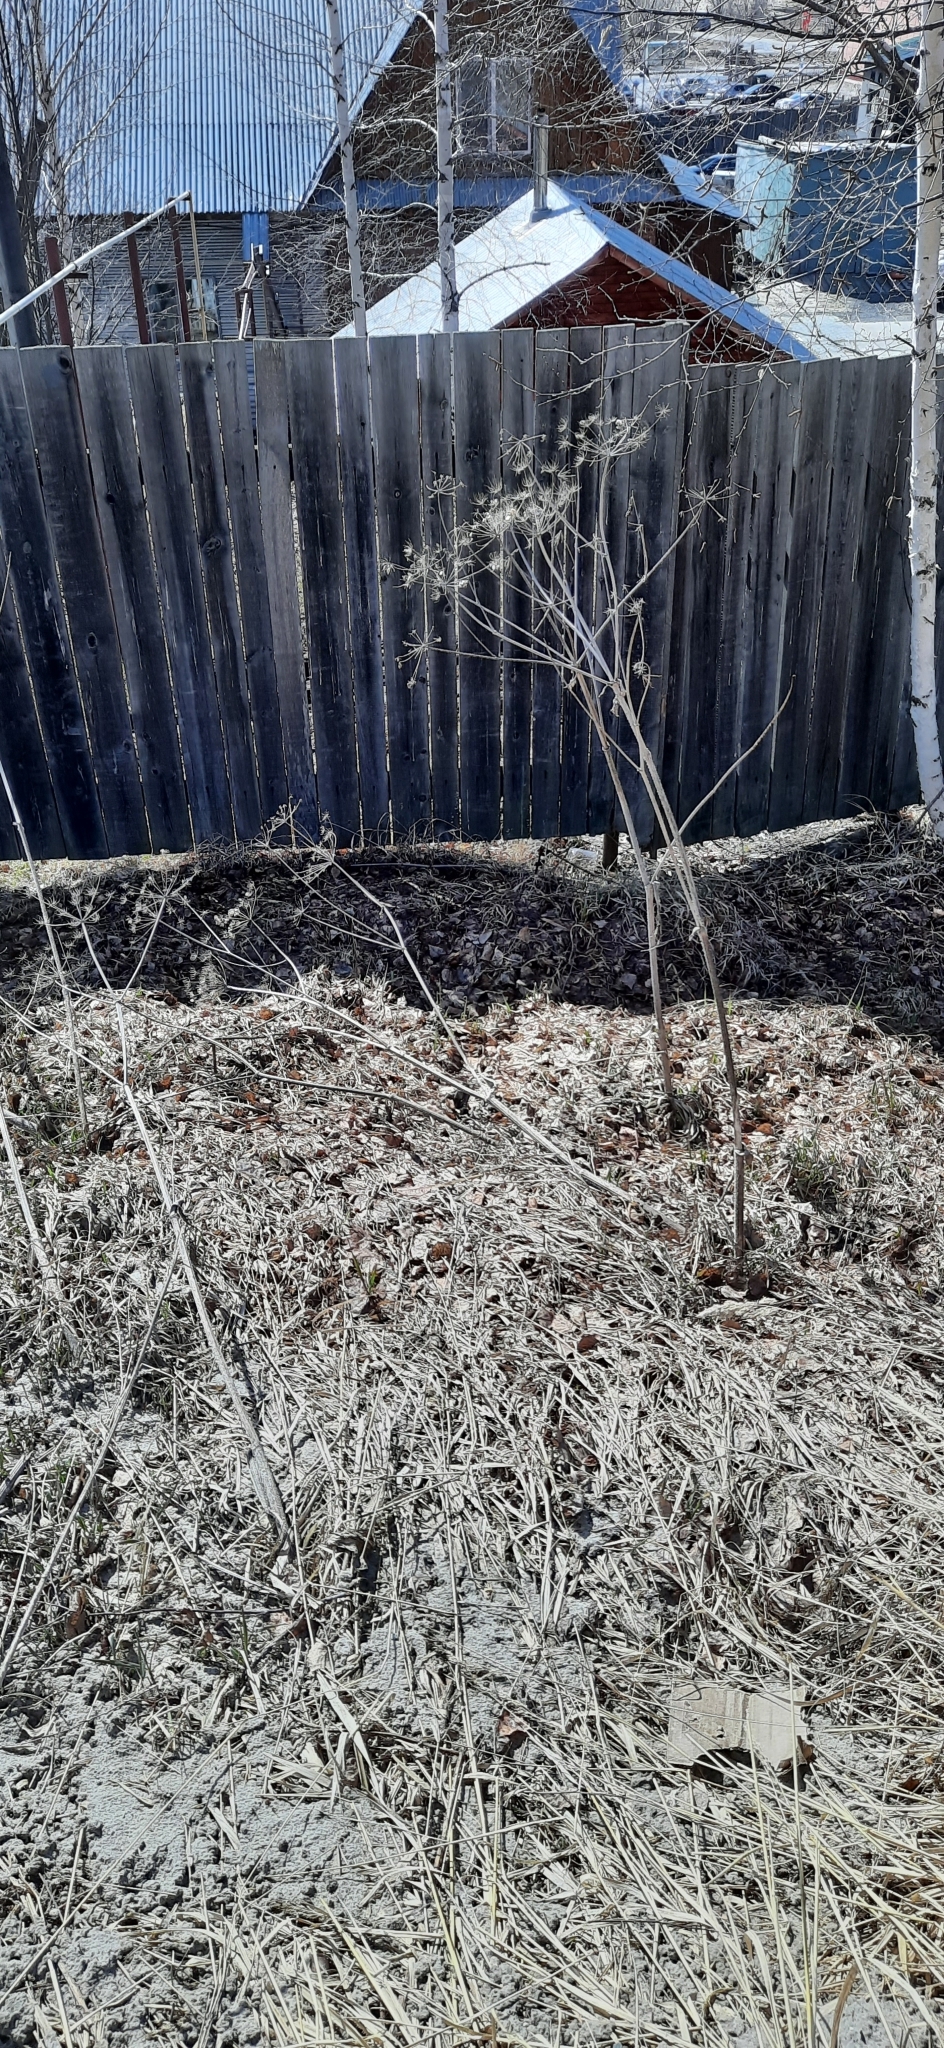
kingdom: Plantae
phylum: Tracheophyta
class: Magnoliopsida
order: Apiales
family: Apiaceae
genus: Angelica
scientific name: Angelica sylvestris
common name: Wild angelica
